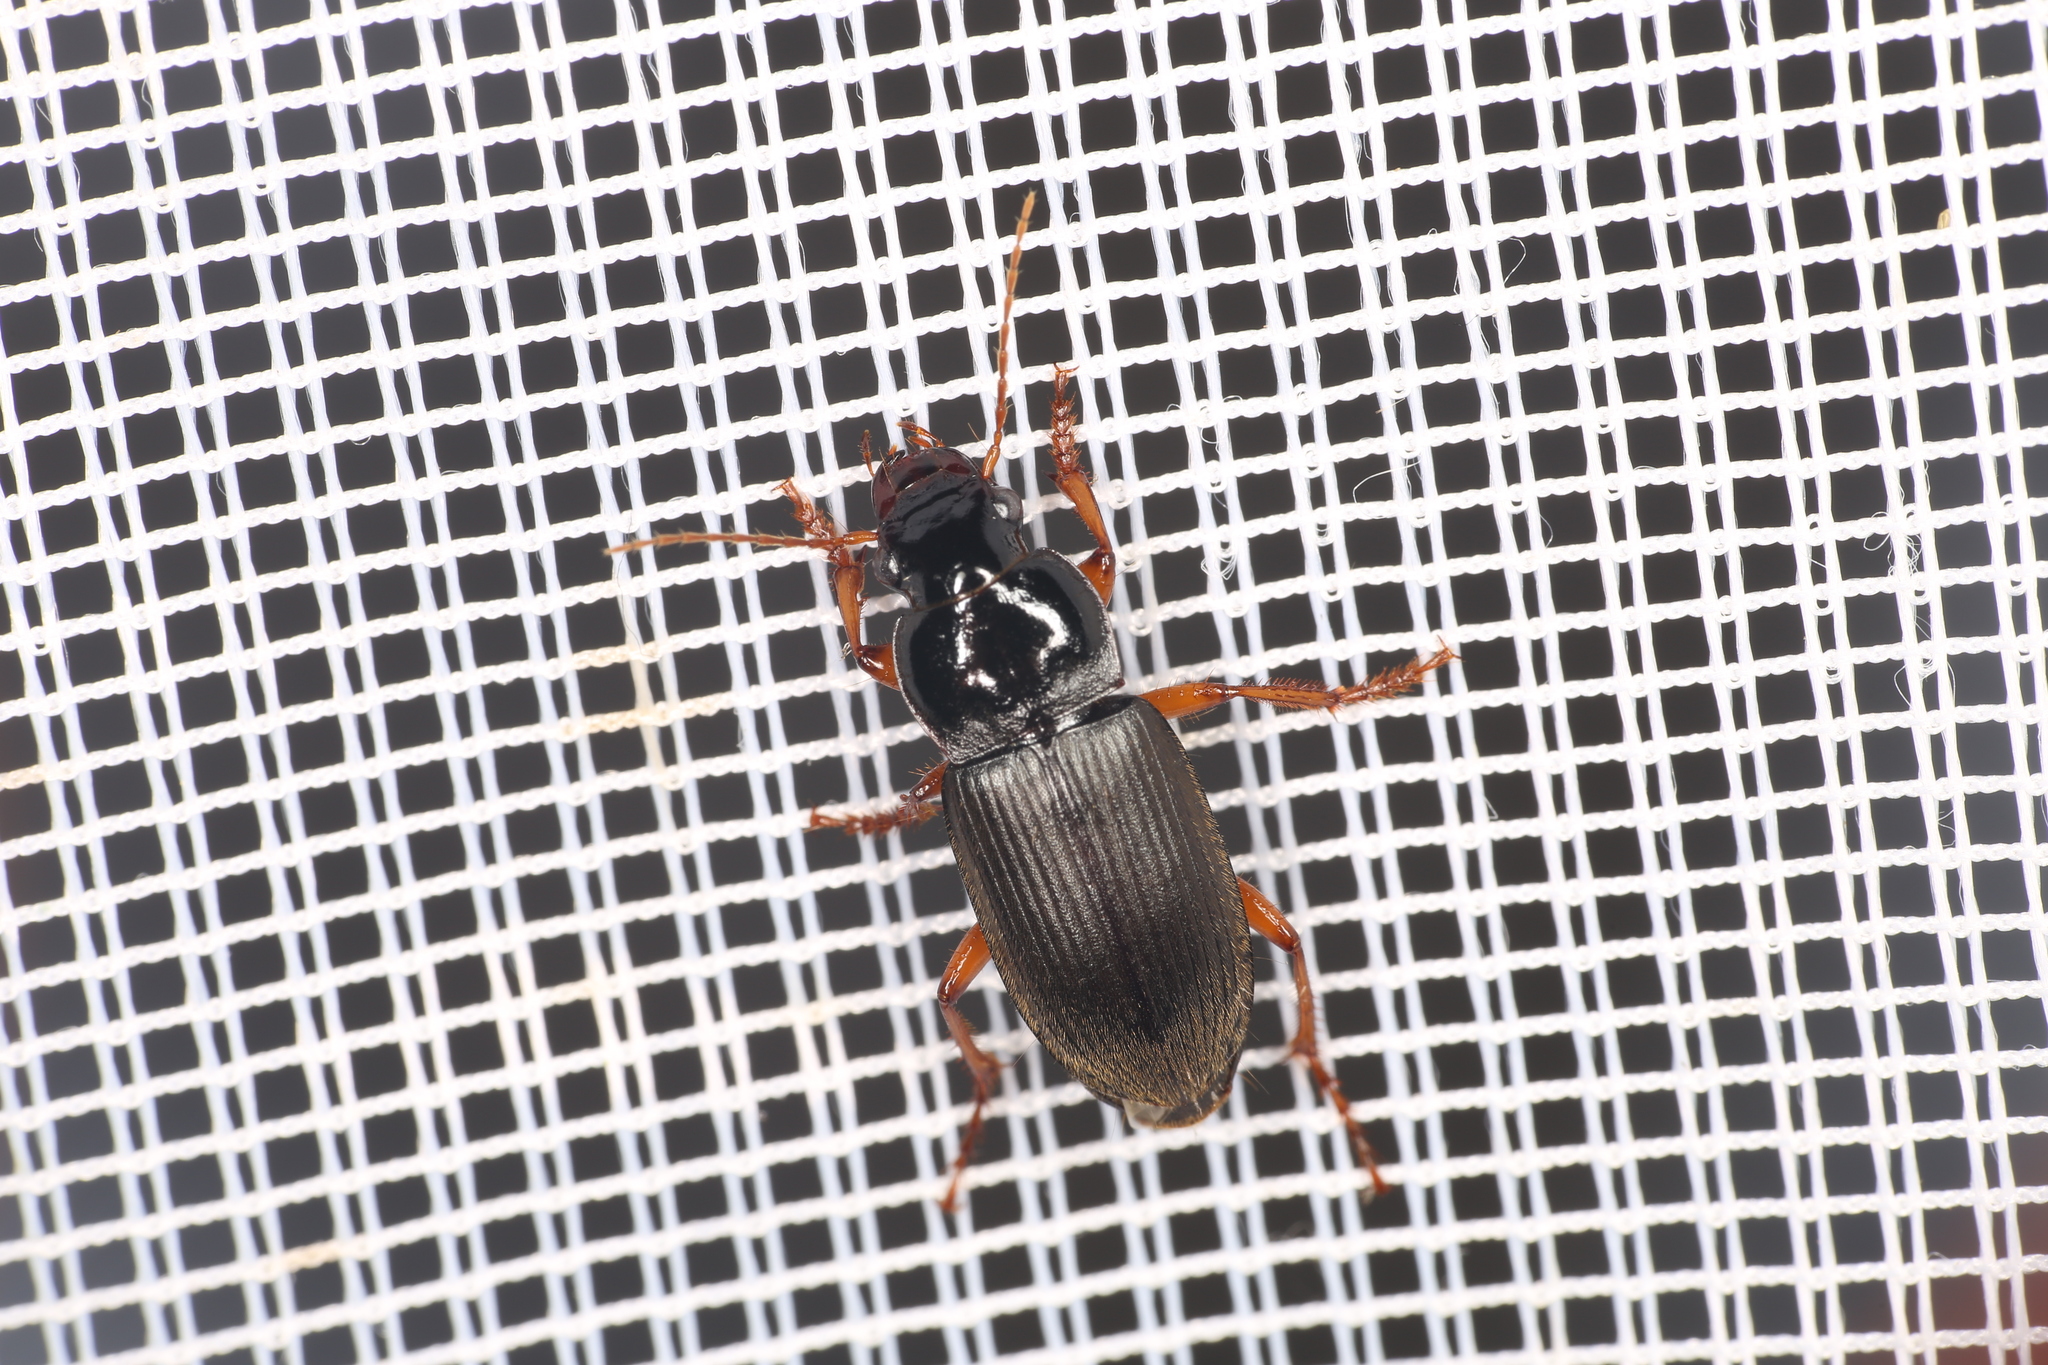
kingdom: Animalia
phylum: Arthropoda
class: Insecta
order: Coleoptera
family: Carabidae
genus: Harpalus
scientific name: Harpalus rufipes
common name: Strawberry harp ground beetle
